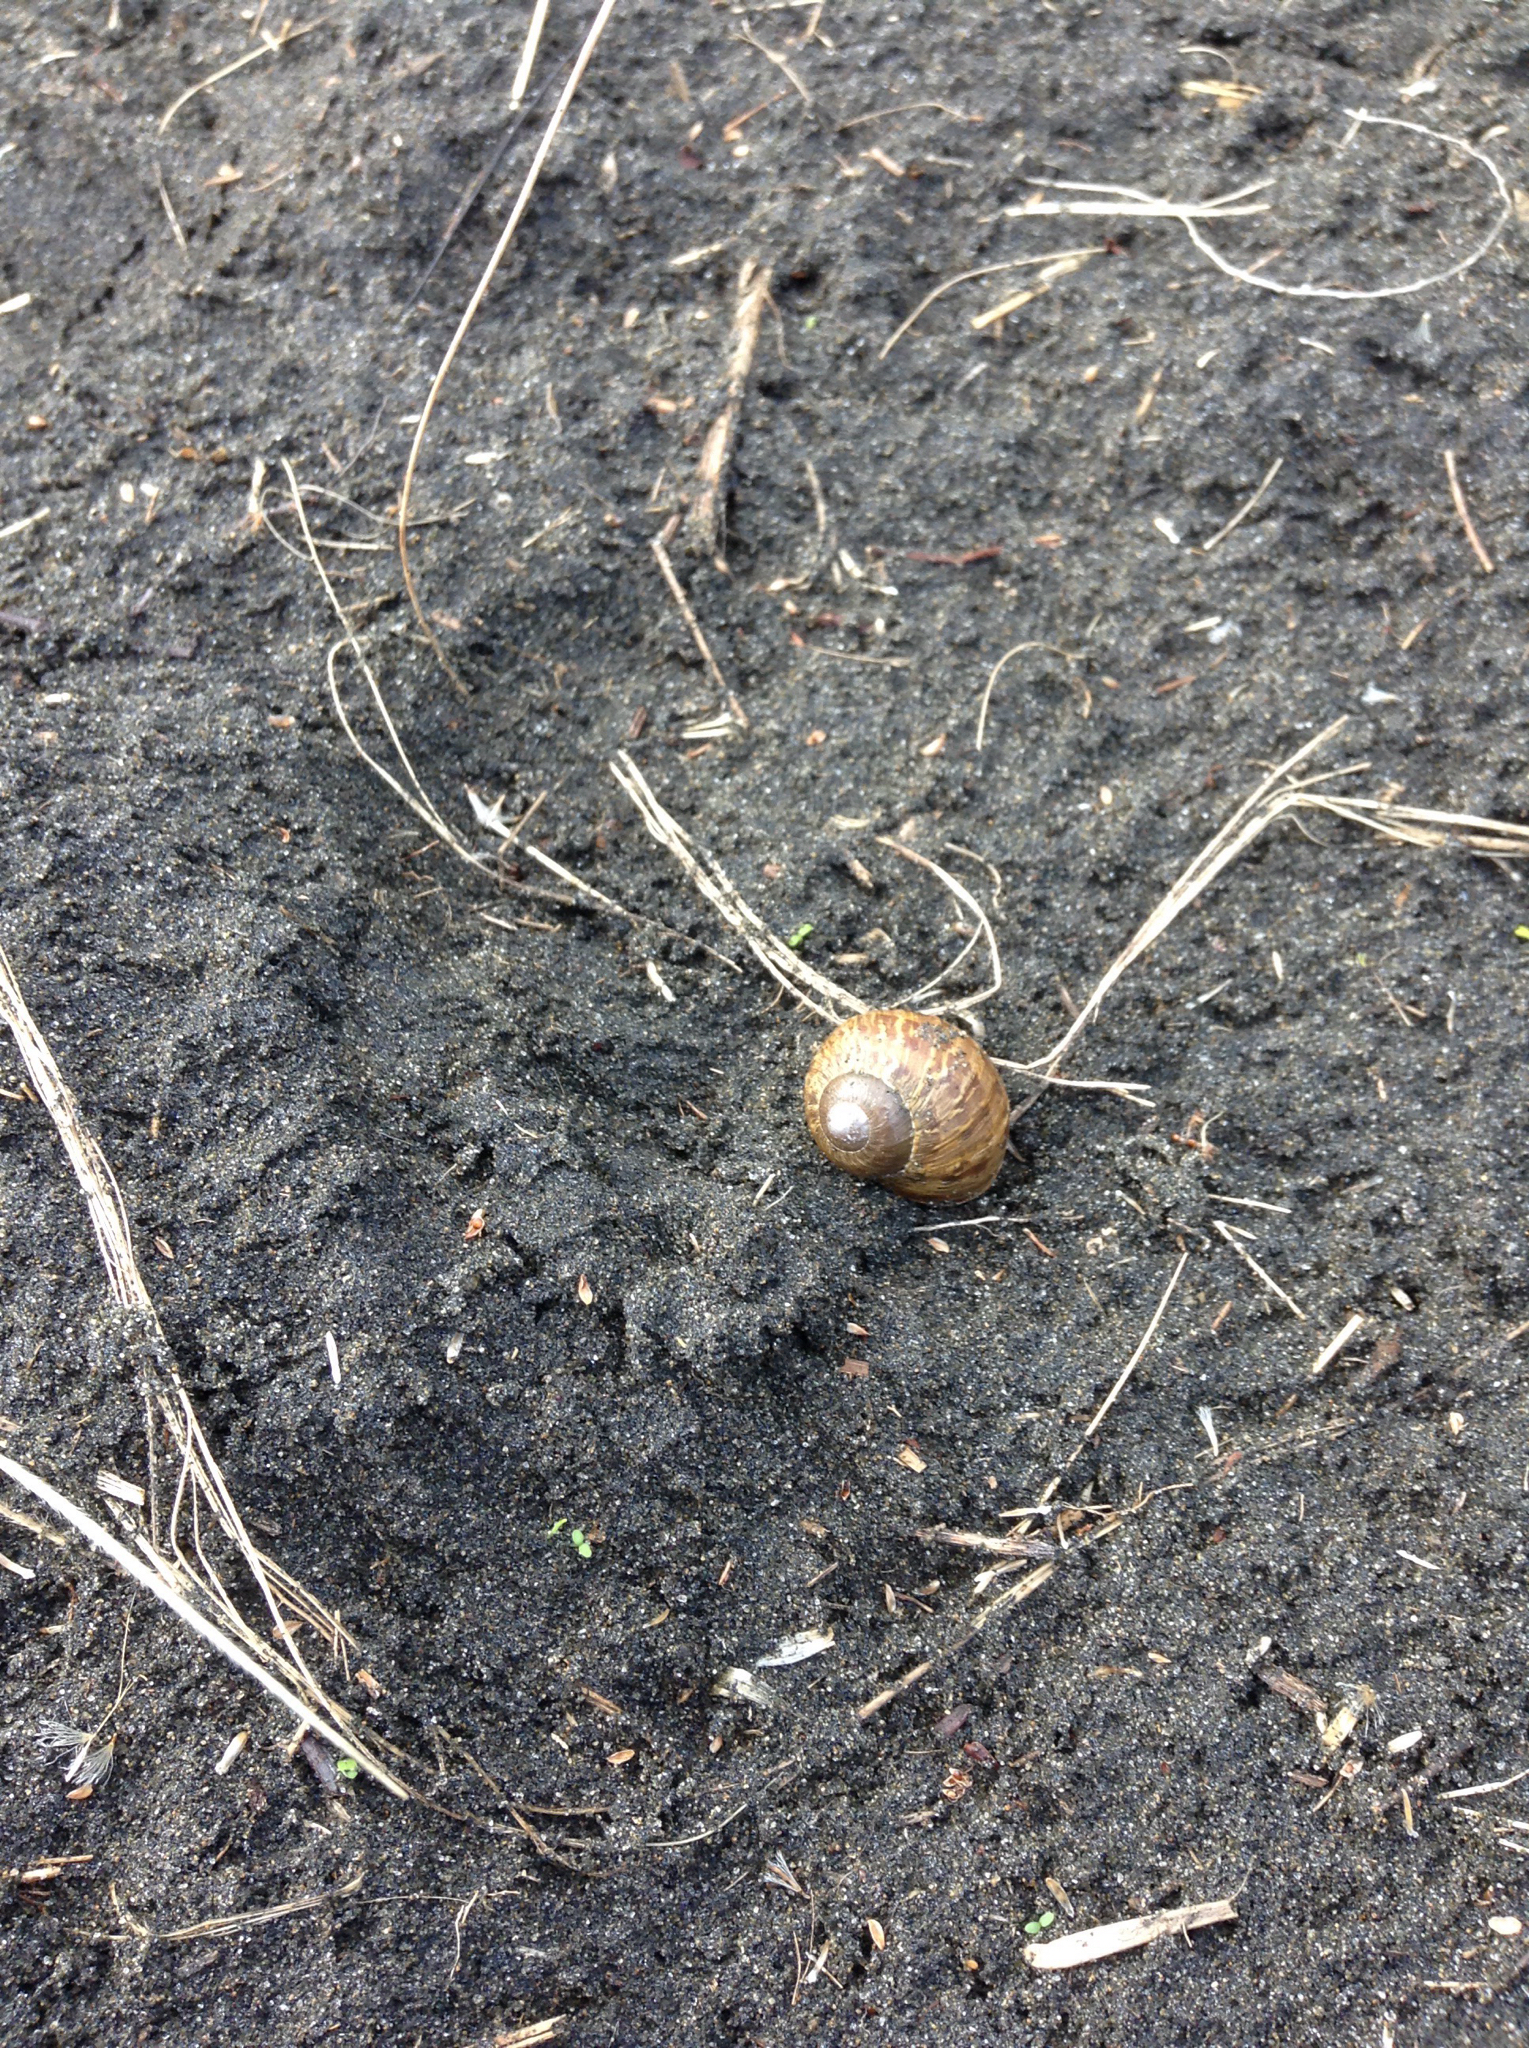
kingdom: Animalia
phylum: Mollusca
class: Gastropoda
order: Stylommatophora
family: Helicidae
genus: Cornu
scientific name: Cornu aspersum
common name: Brown garden snail
